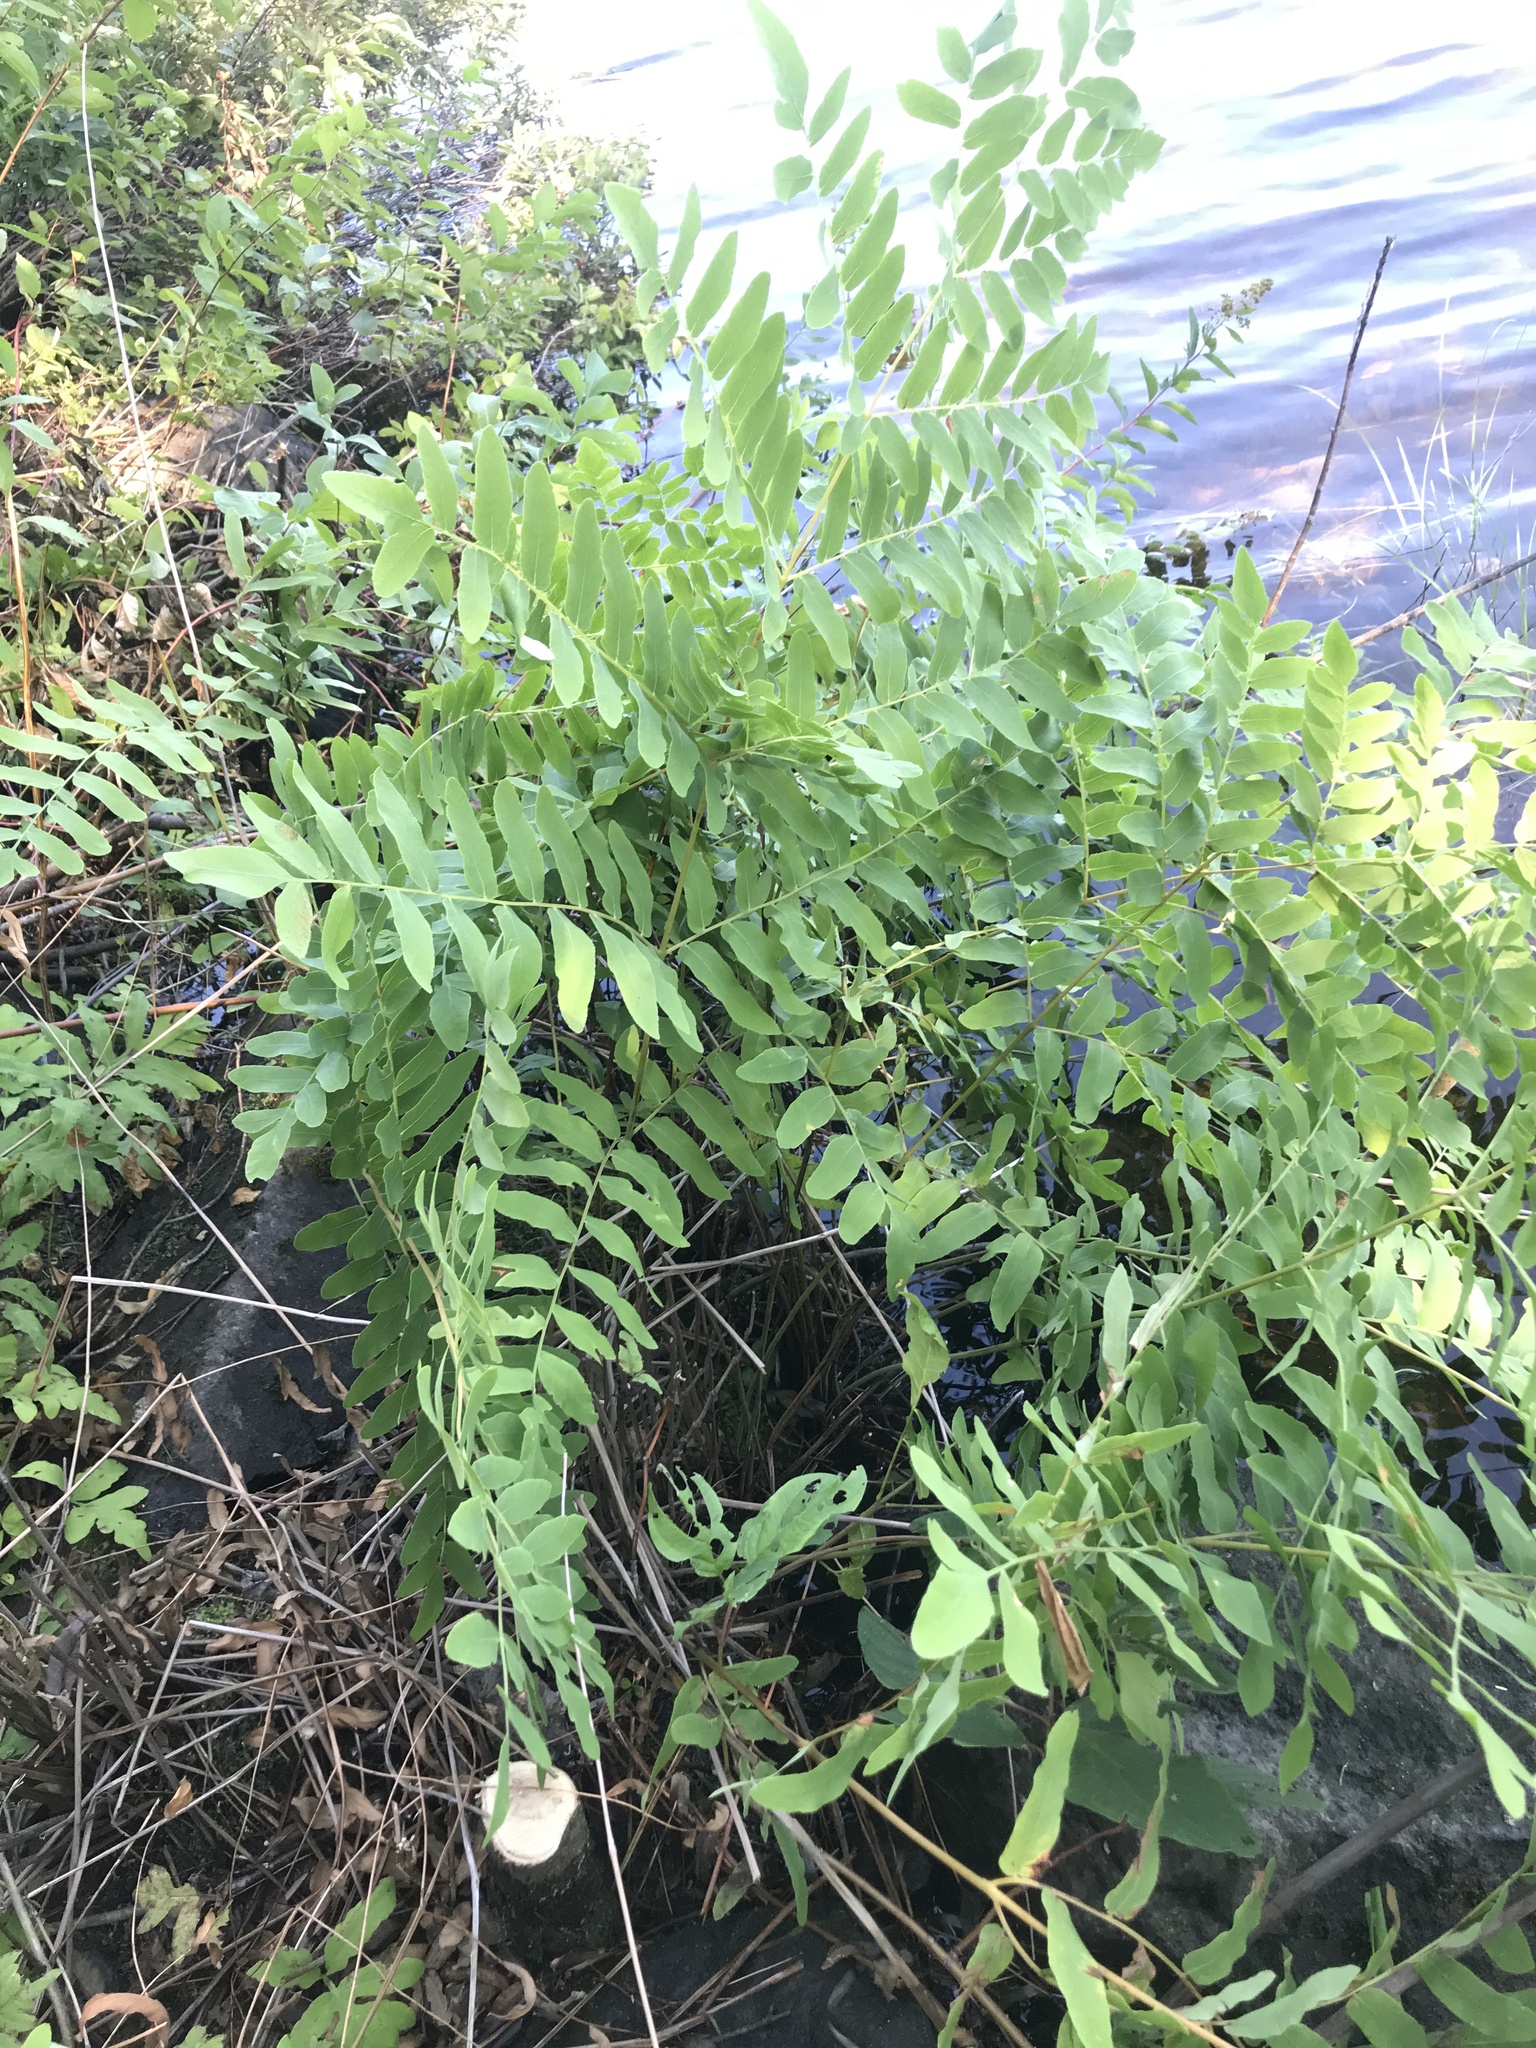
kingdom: Plantae
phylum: Tracheophyta
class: Polypodiopsida
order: Osmundales
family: Osmundaceae
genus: Osmunda
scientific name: Osmunda spectabilis
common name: American royal fern
